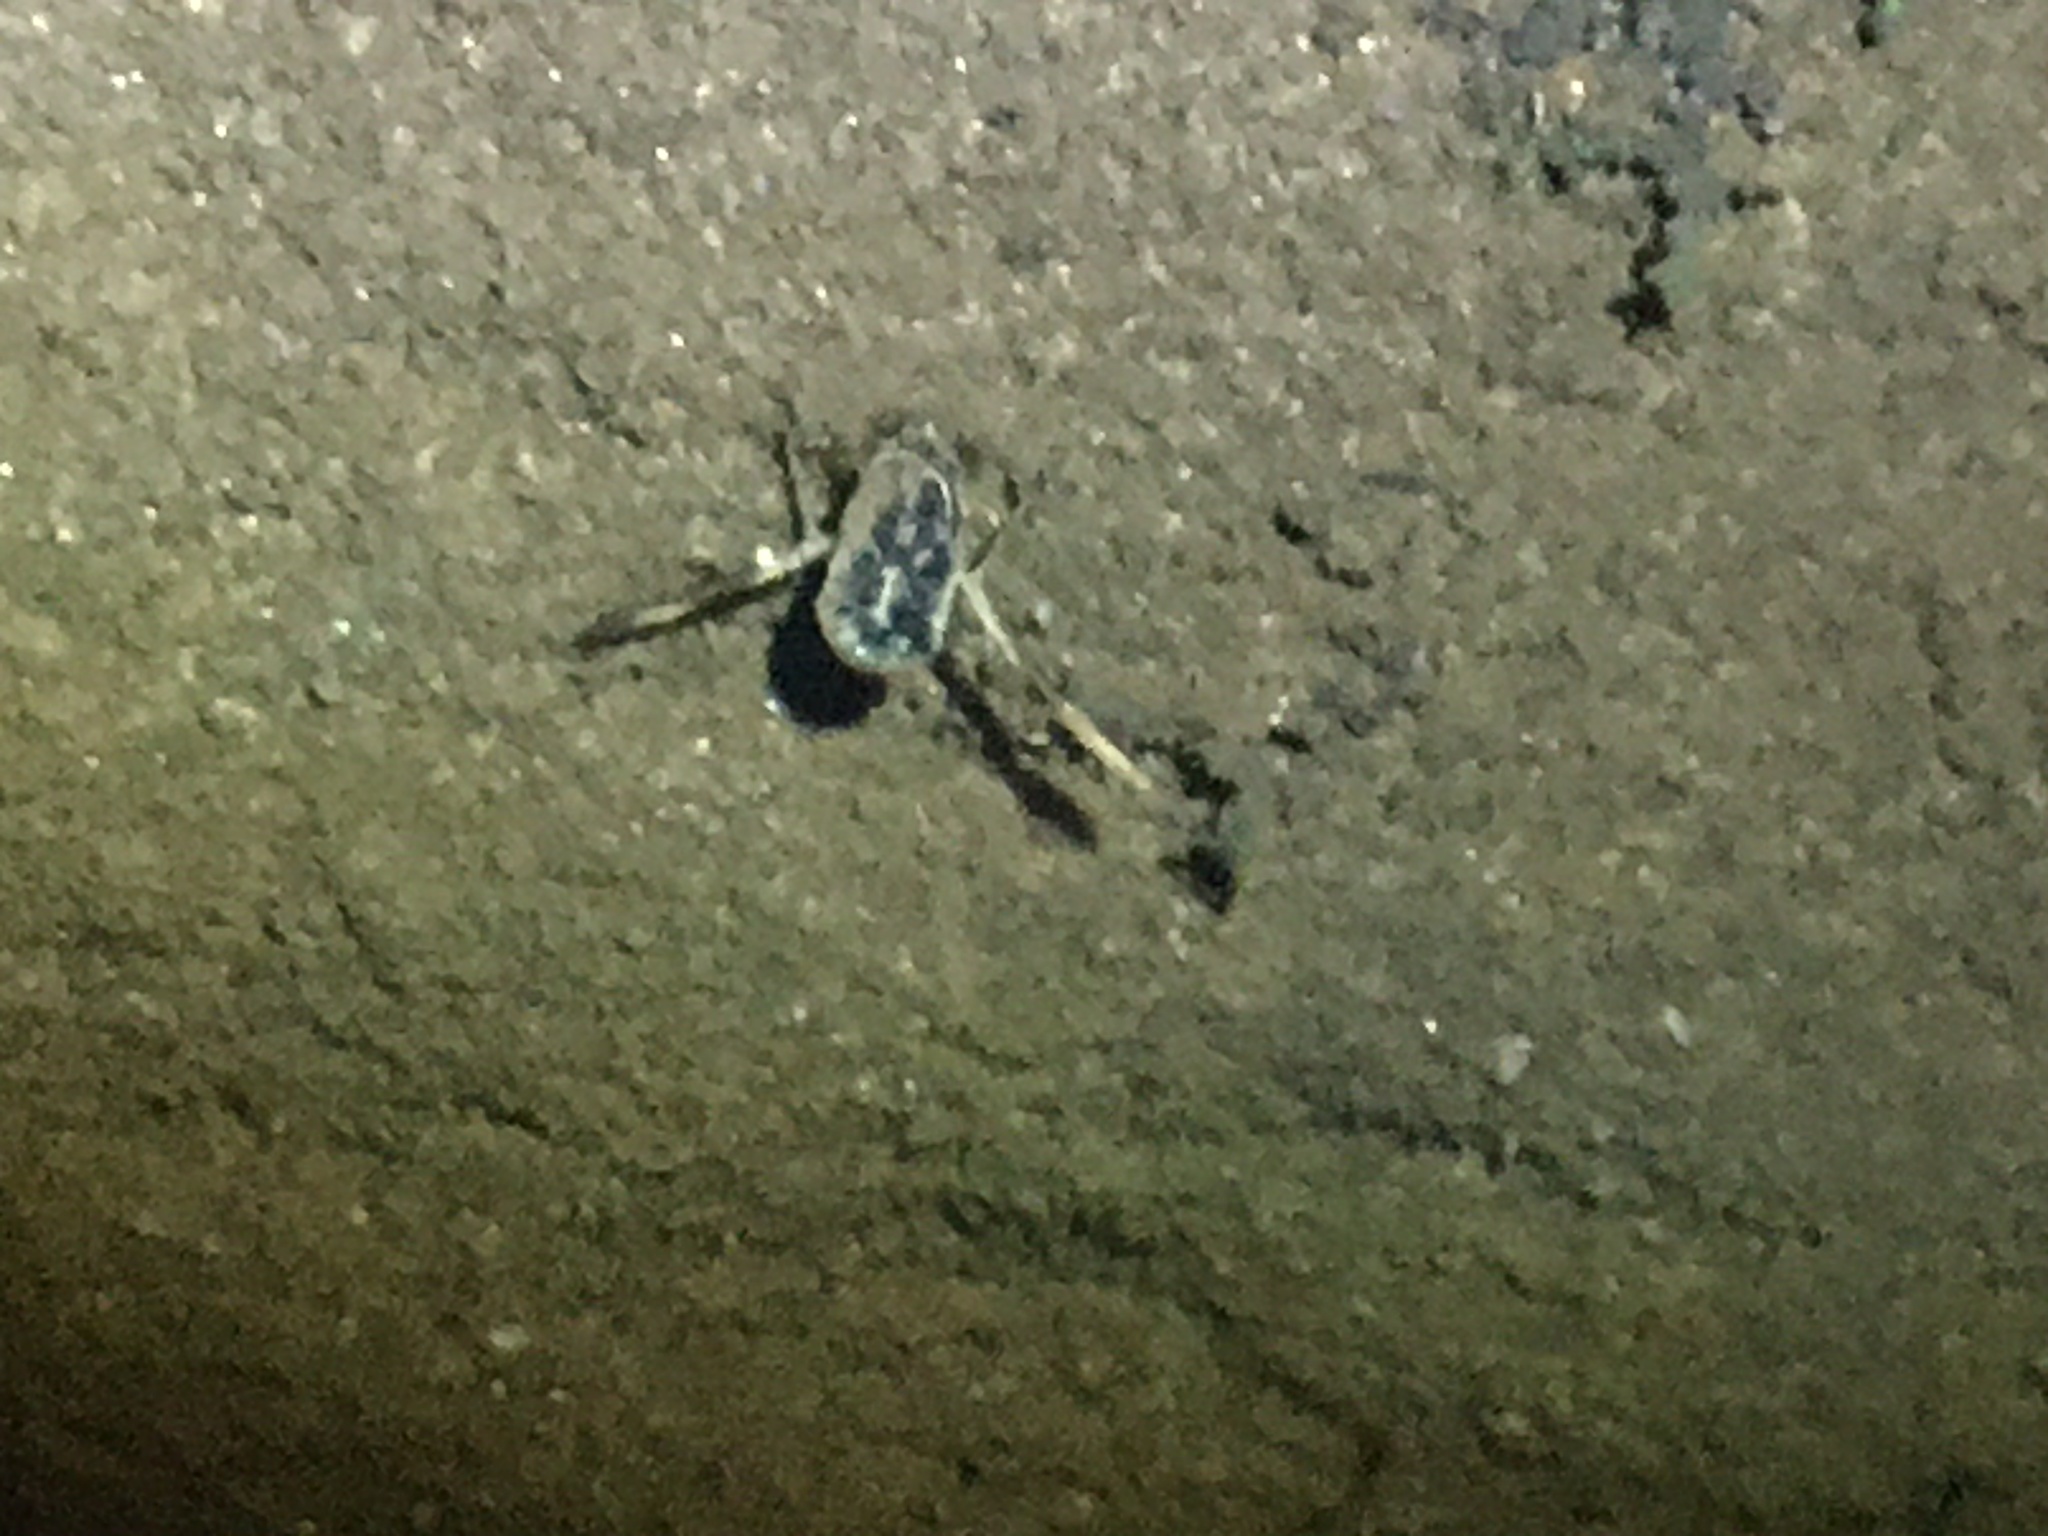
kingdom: Animalia
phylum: Arthropoda
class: Insecta
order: Hemiptera
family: Notonectidae
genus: Notonecta
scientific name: Notonecta
